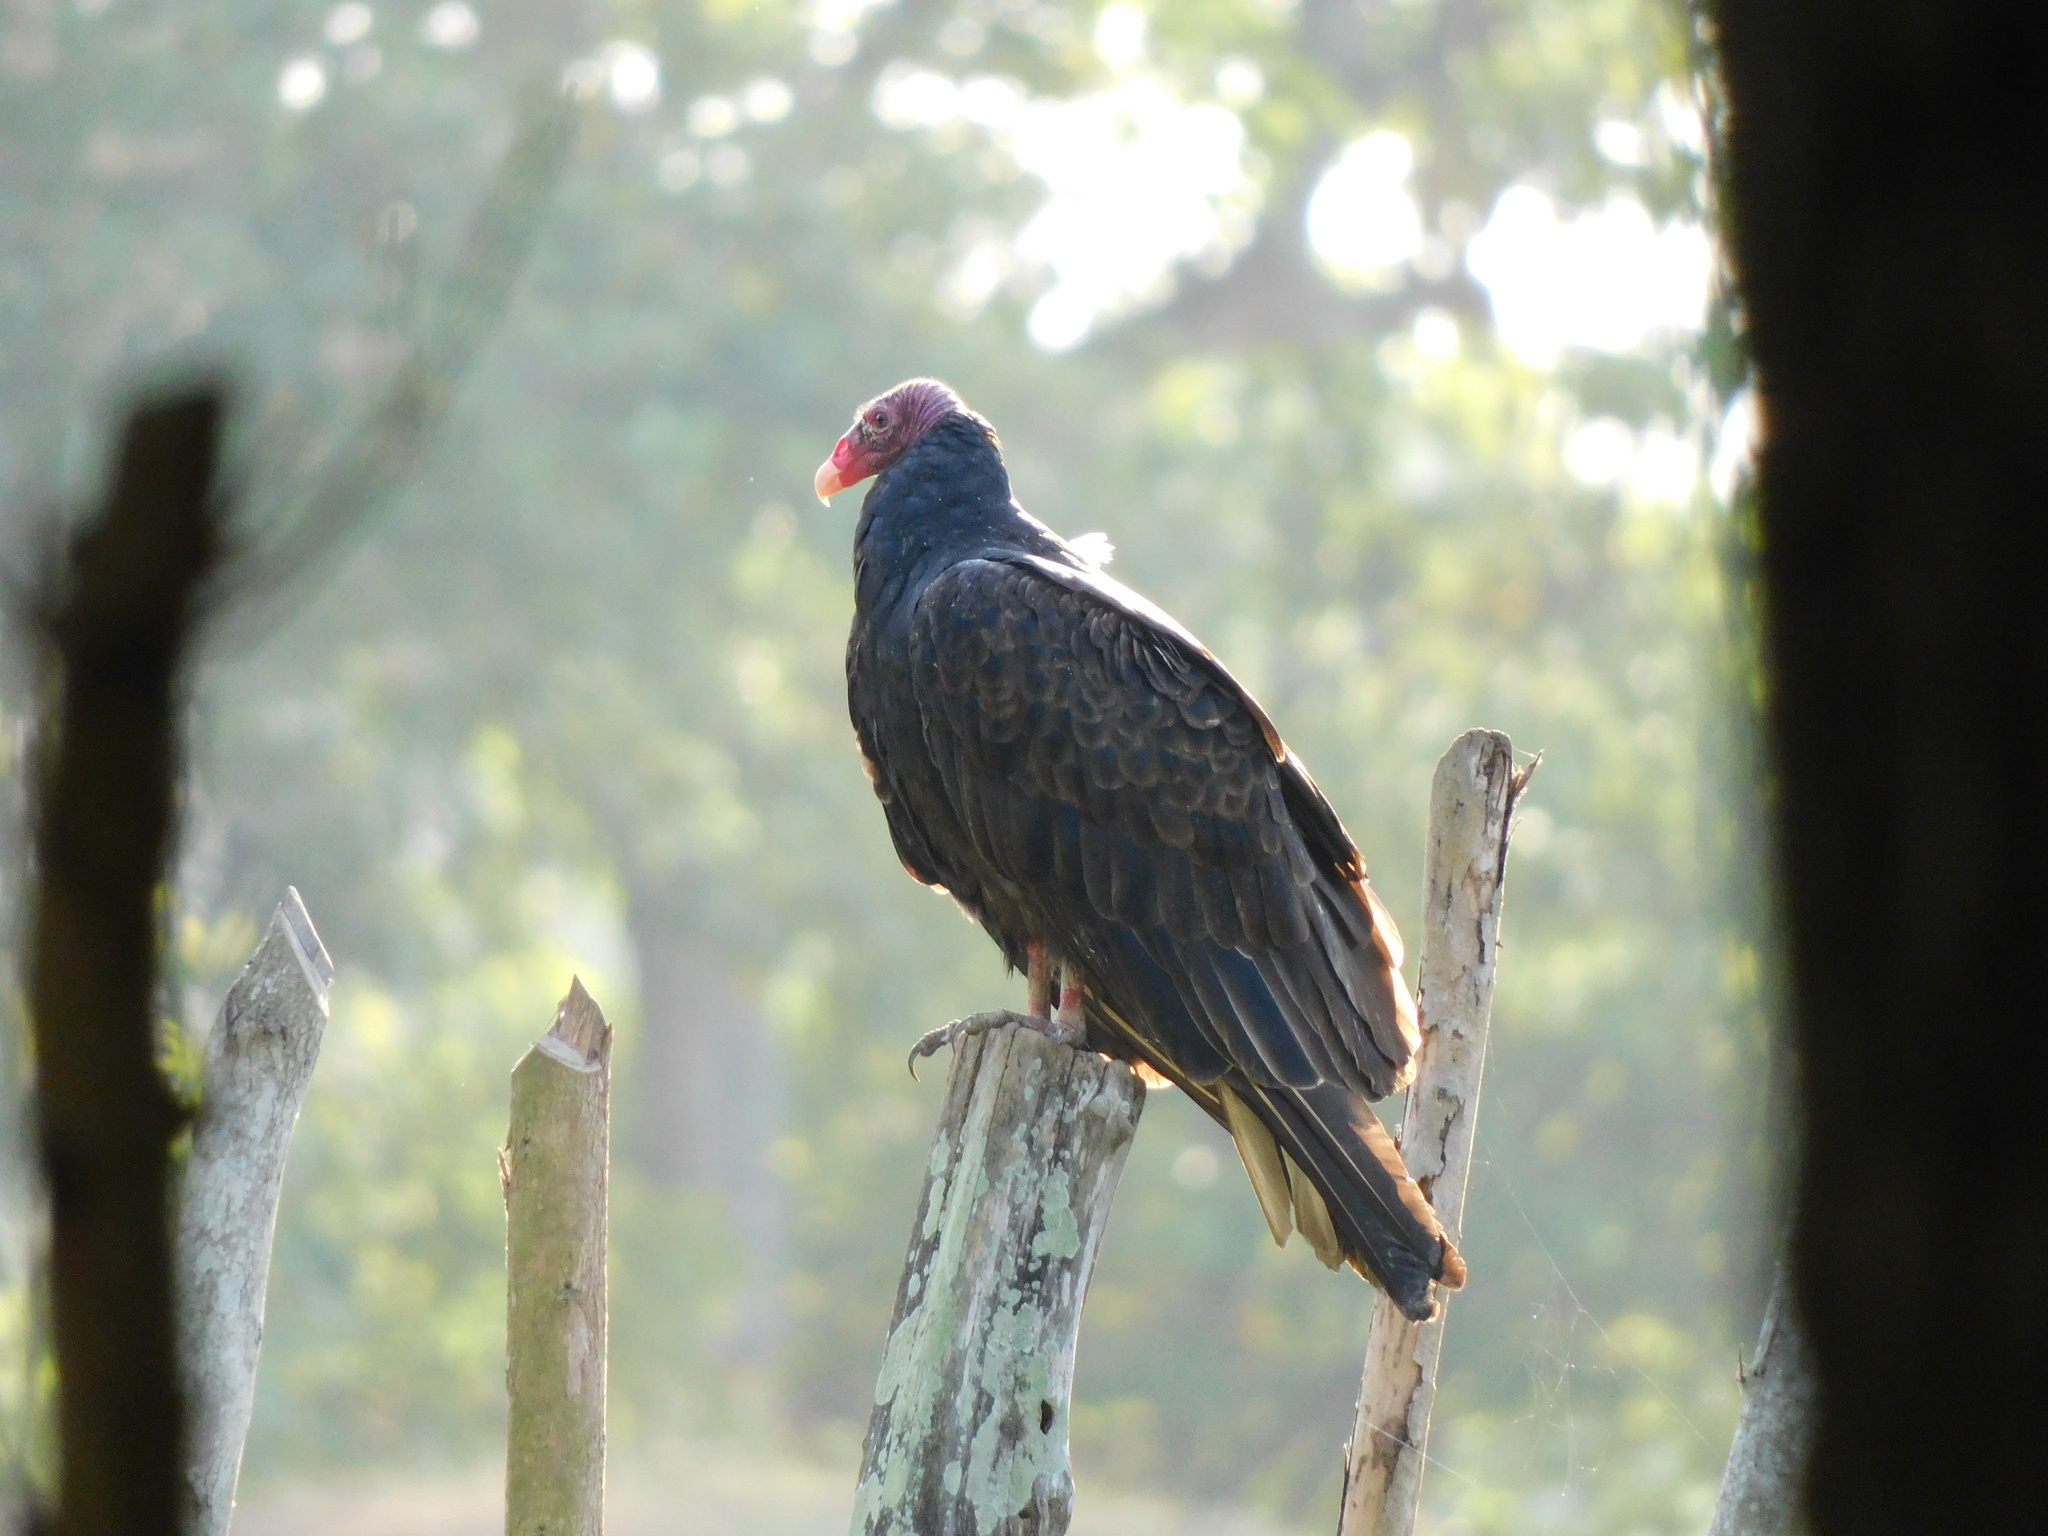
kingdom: Animalia
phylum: Chordata
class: Aves
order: Accipitriformes
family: Cathartidae
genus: Cathartes
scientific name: Cathartes aura
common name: Turkey vulture
